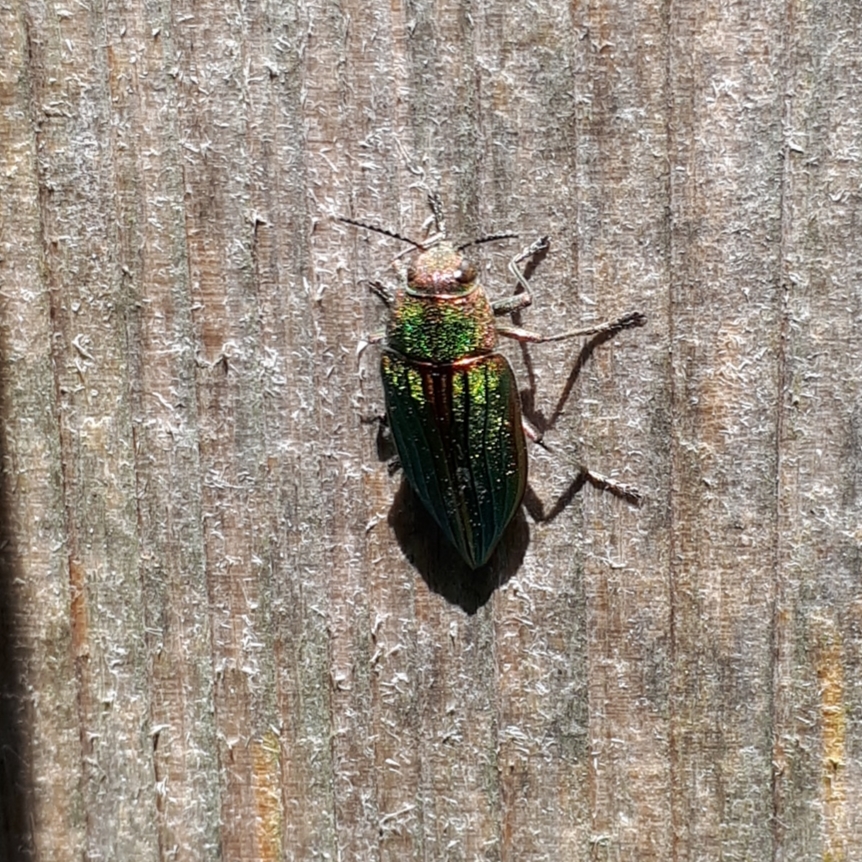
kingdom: Animalia
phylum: Arthropoda
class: Insecta
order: Coleoptera
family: Buprestidae
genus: Buprestis
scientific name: Buprestis aurulenta
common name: Golden buprestid
